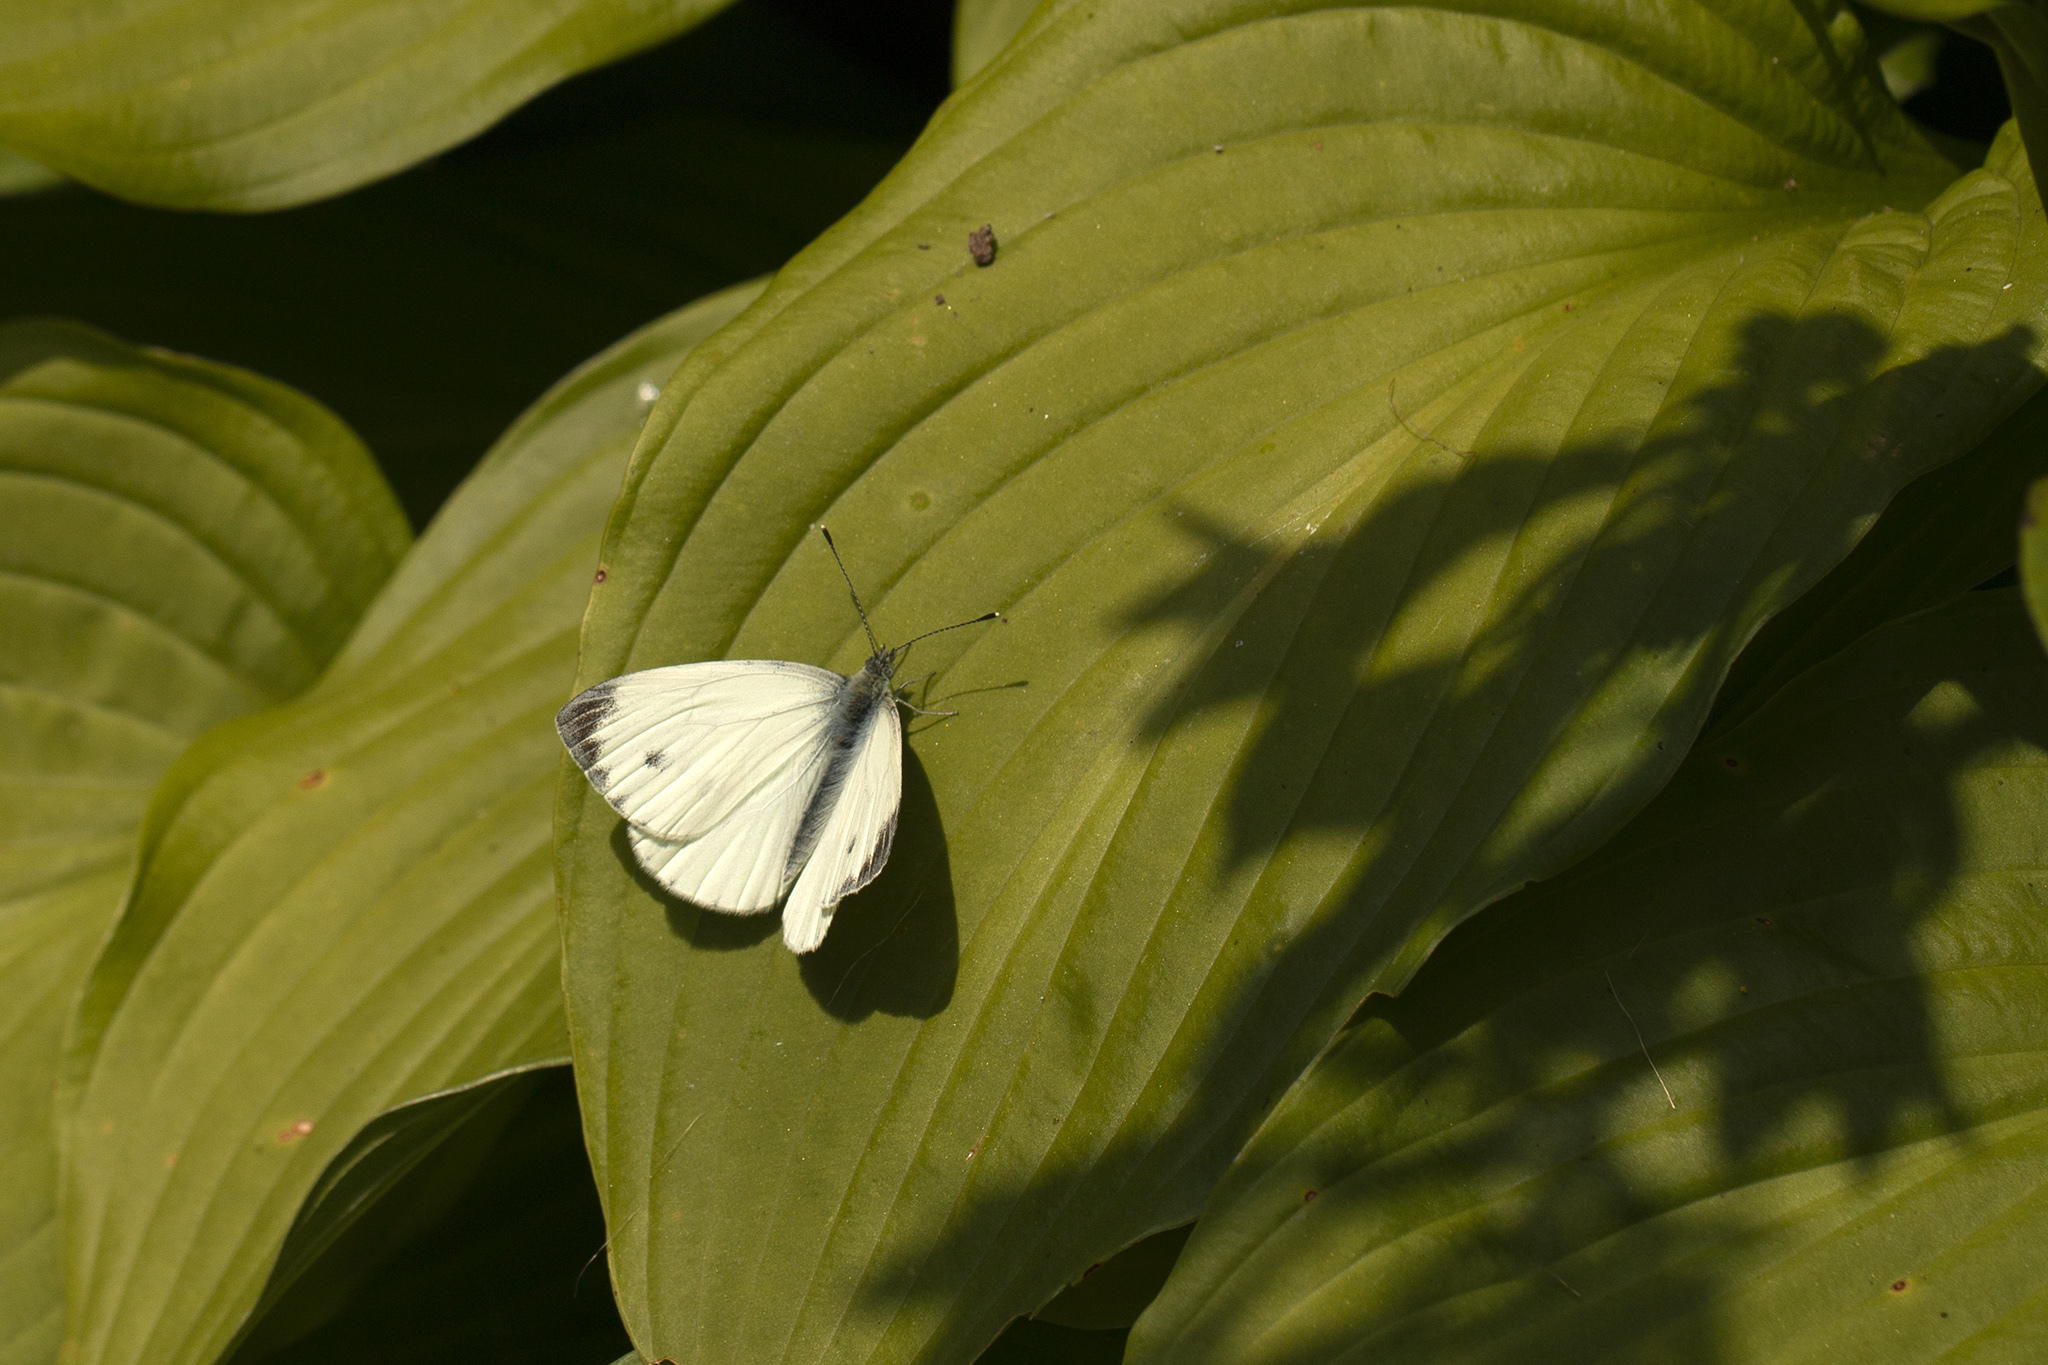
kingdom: Animalia
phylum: Arthropoda
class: Insecta
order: Lepidoptera
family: Pieridae
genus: Pieris
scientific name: Pieris napi
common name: Green-veined white
